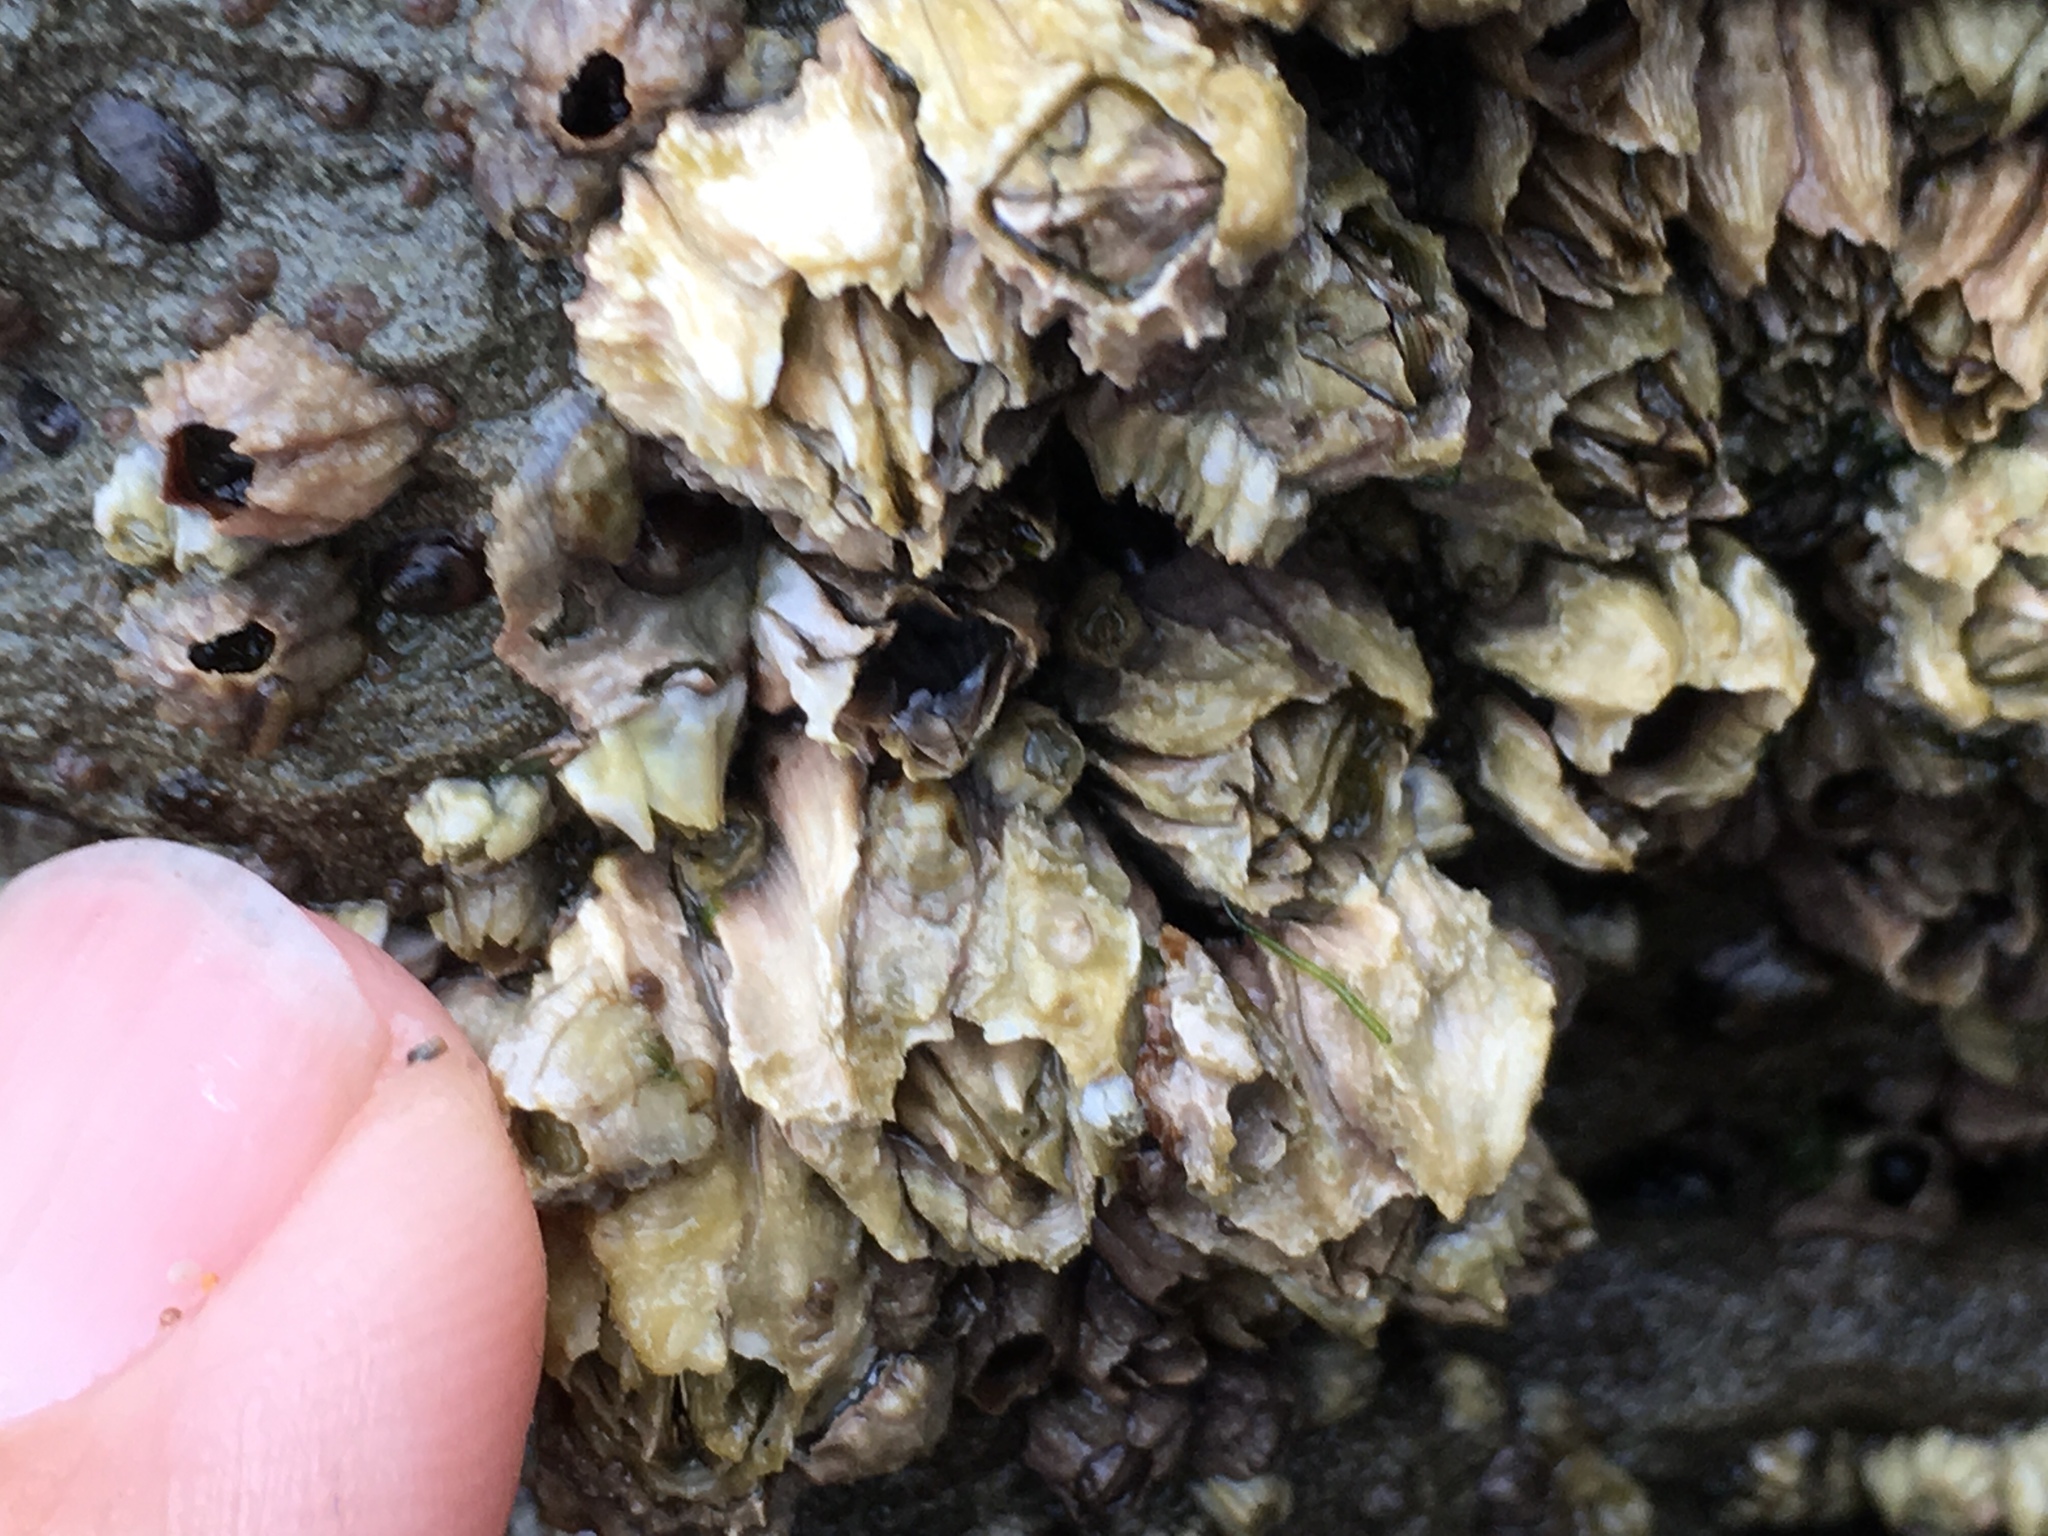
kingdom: Animalia
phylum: Arthropoda
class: Maxillopoda
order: Sessilia
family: Balanidae
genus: Balanus
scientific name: Balanus glandula
